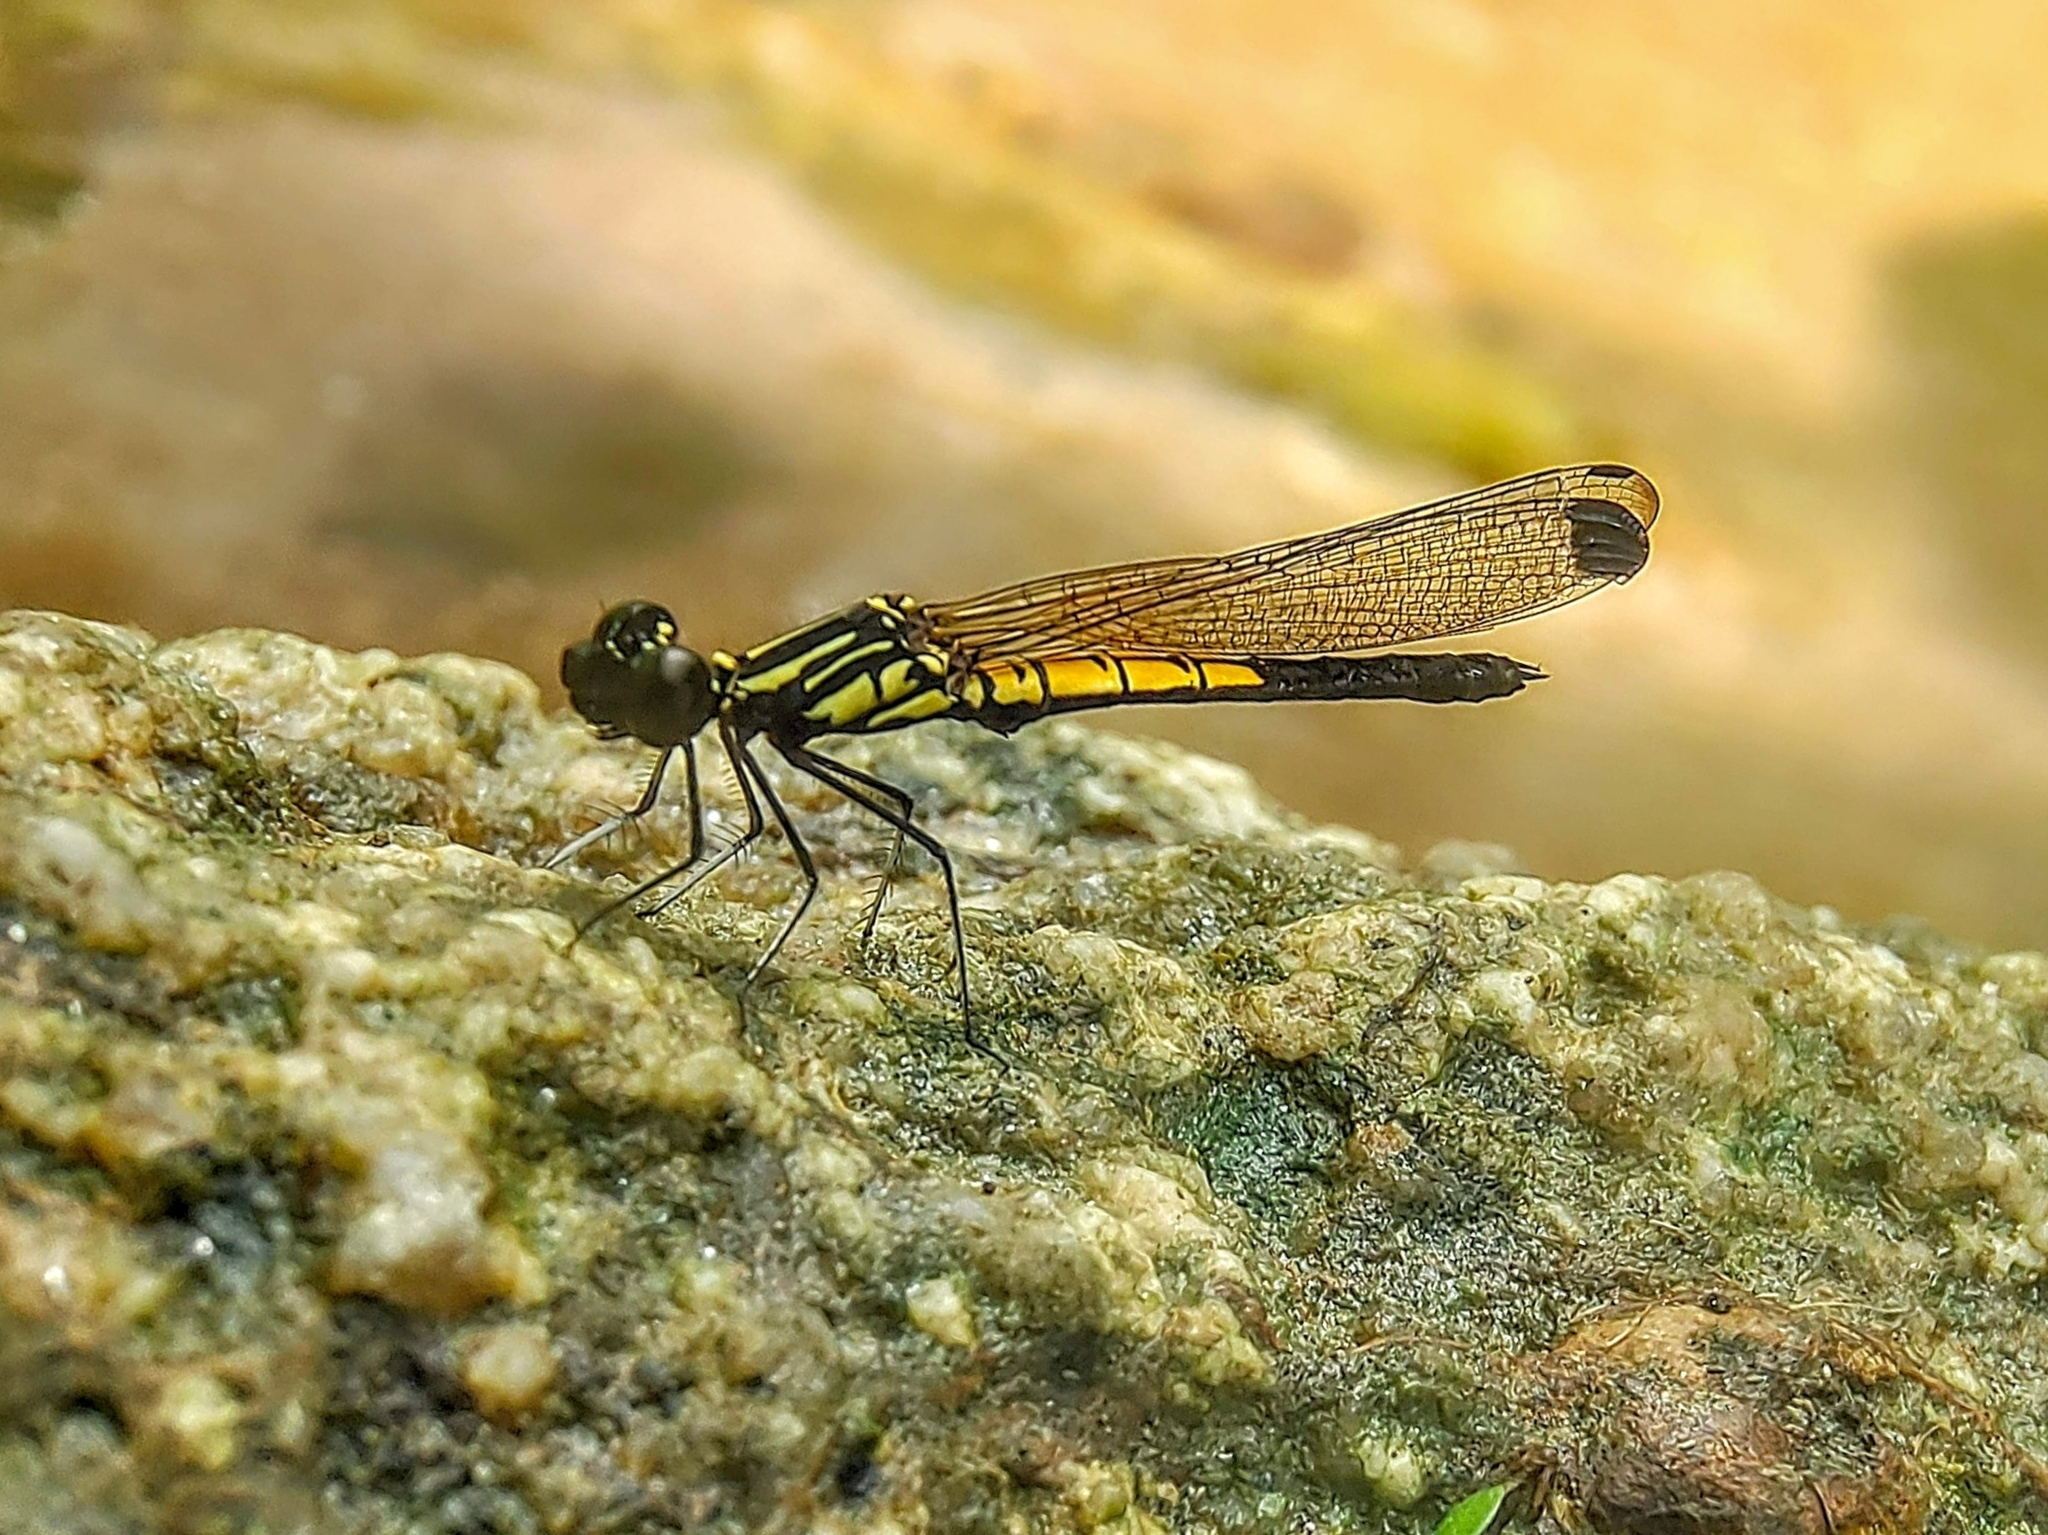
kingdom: Animalia
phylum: Arthropoda
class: Insecta
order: Odonata
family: Chlorocyphidae
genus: Libellago
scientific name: Libellago lineata
